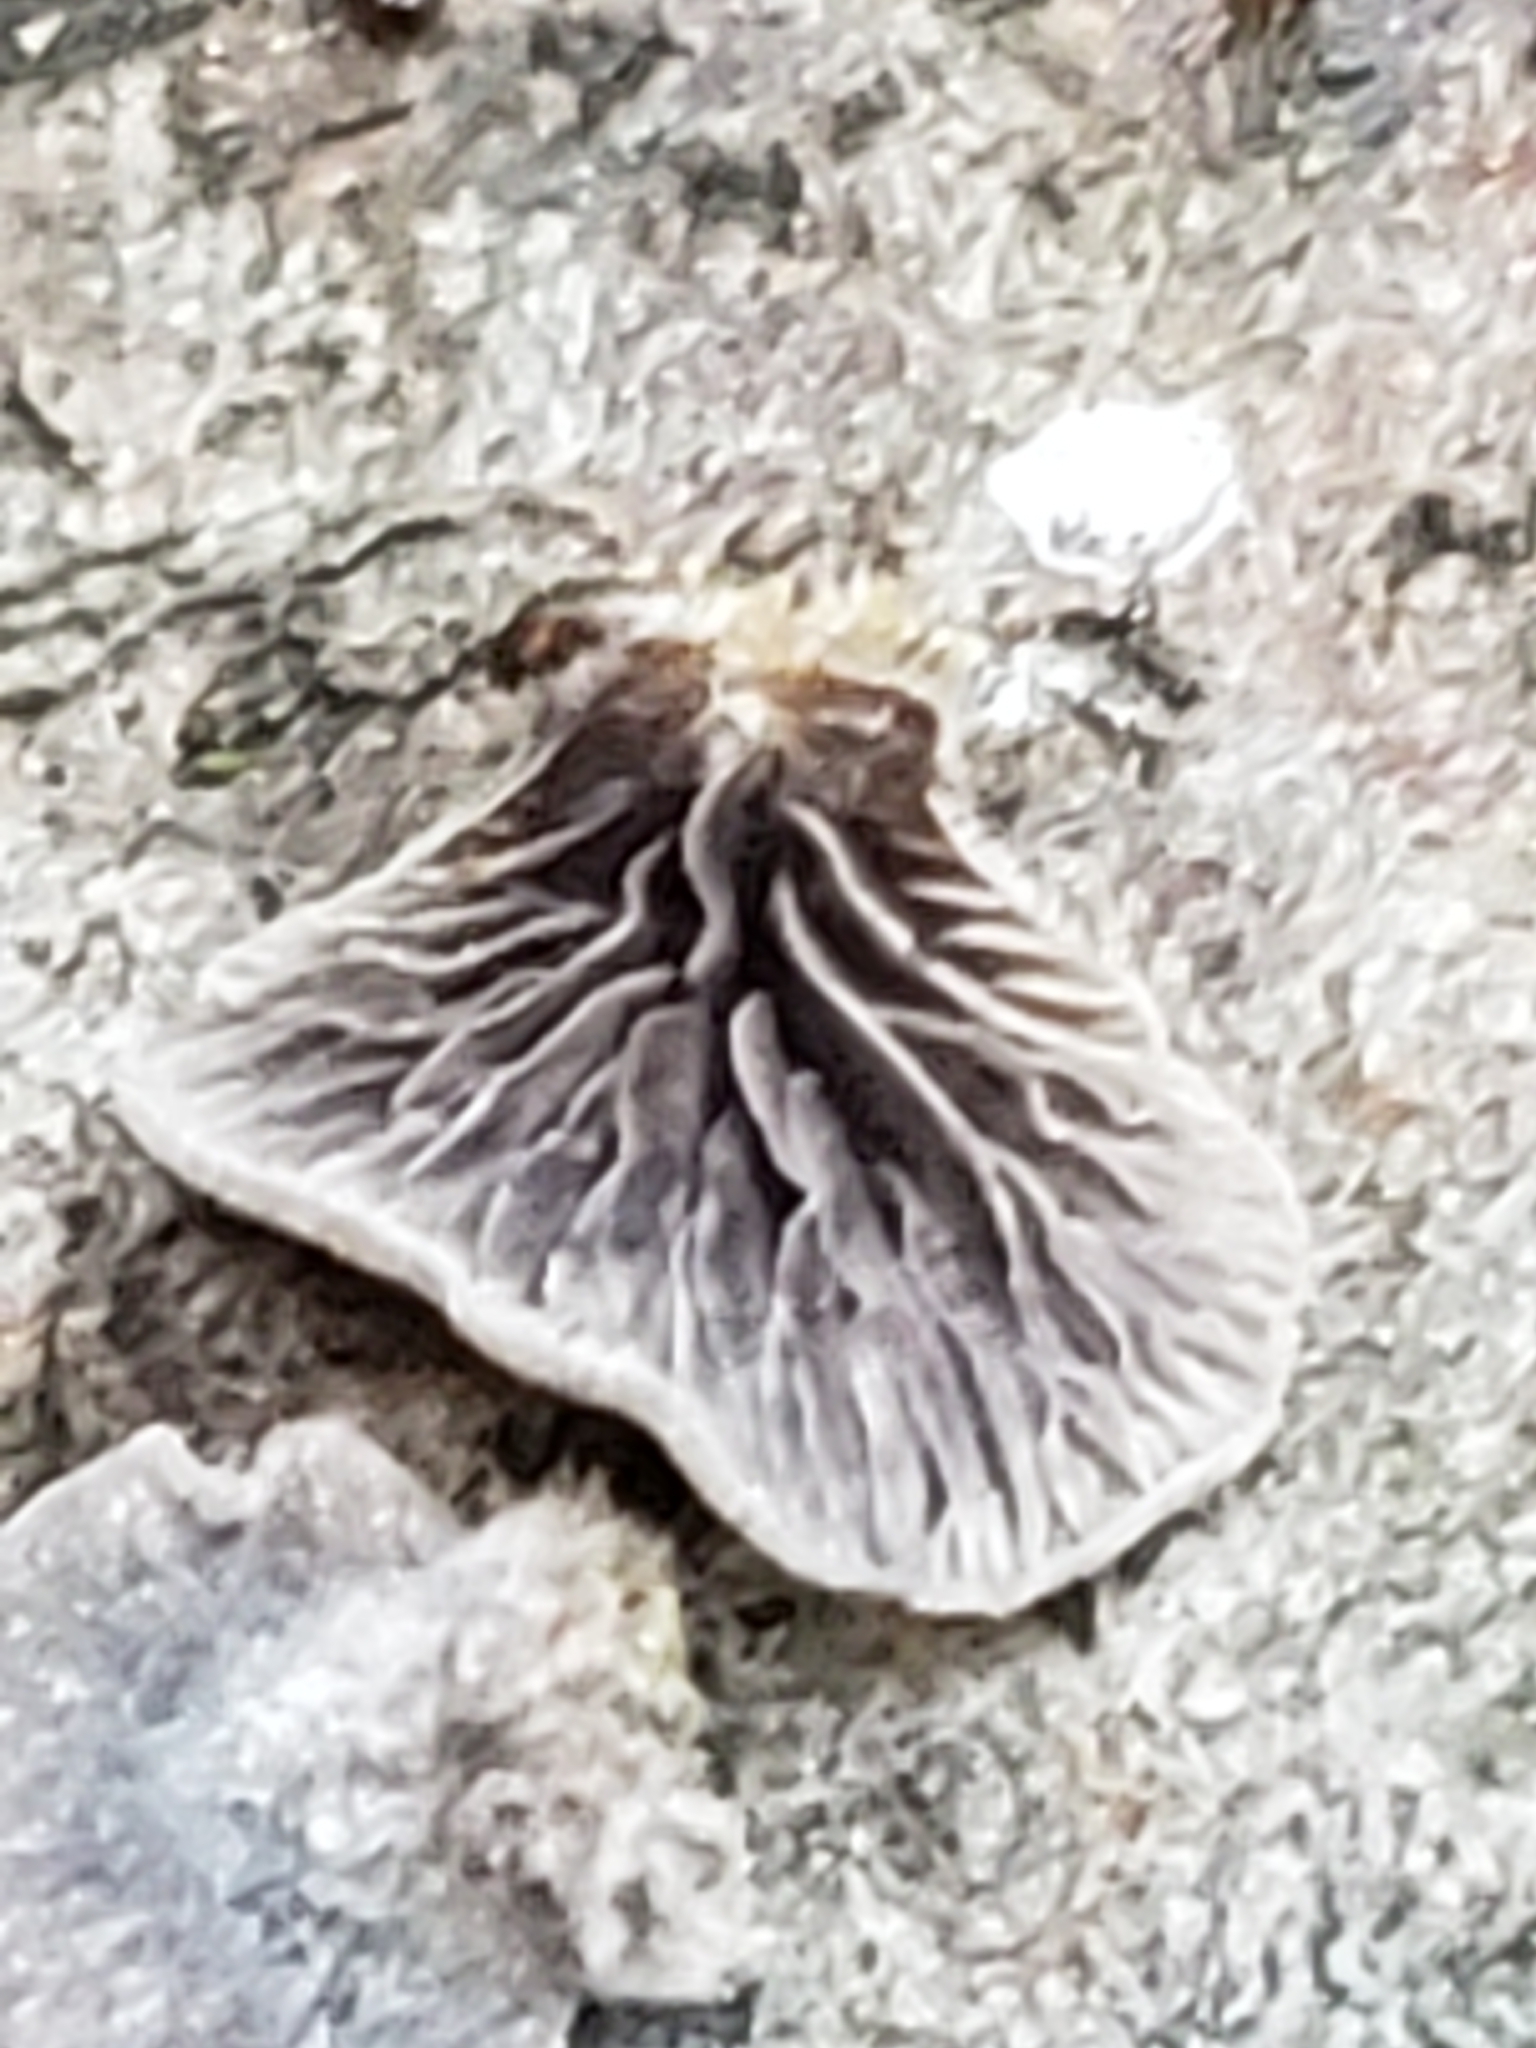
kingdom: Fungi
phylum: Basidiomycota
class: Agaricomycetes
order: Agaricales
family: Pleurotaceae
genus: Resupinatus
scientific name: Resupinatus applicatus
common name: Smoked oysterling
